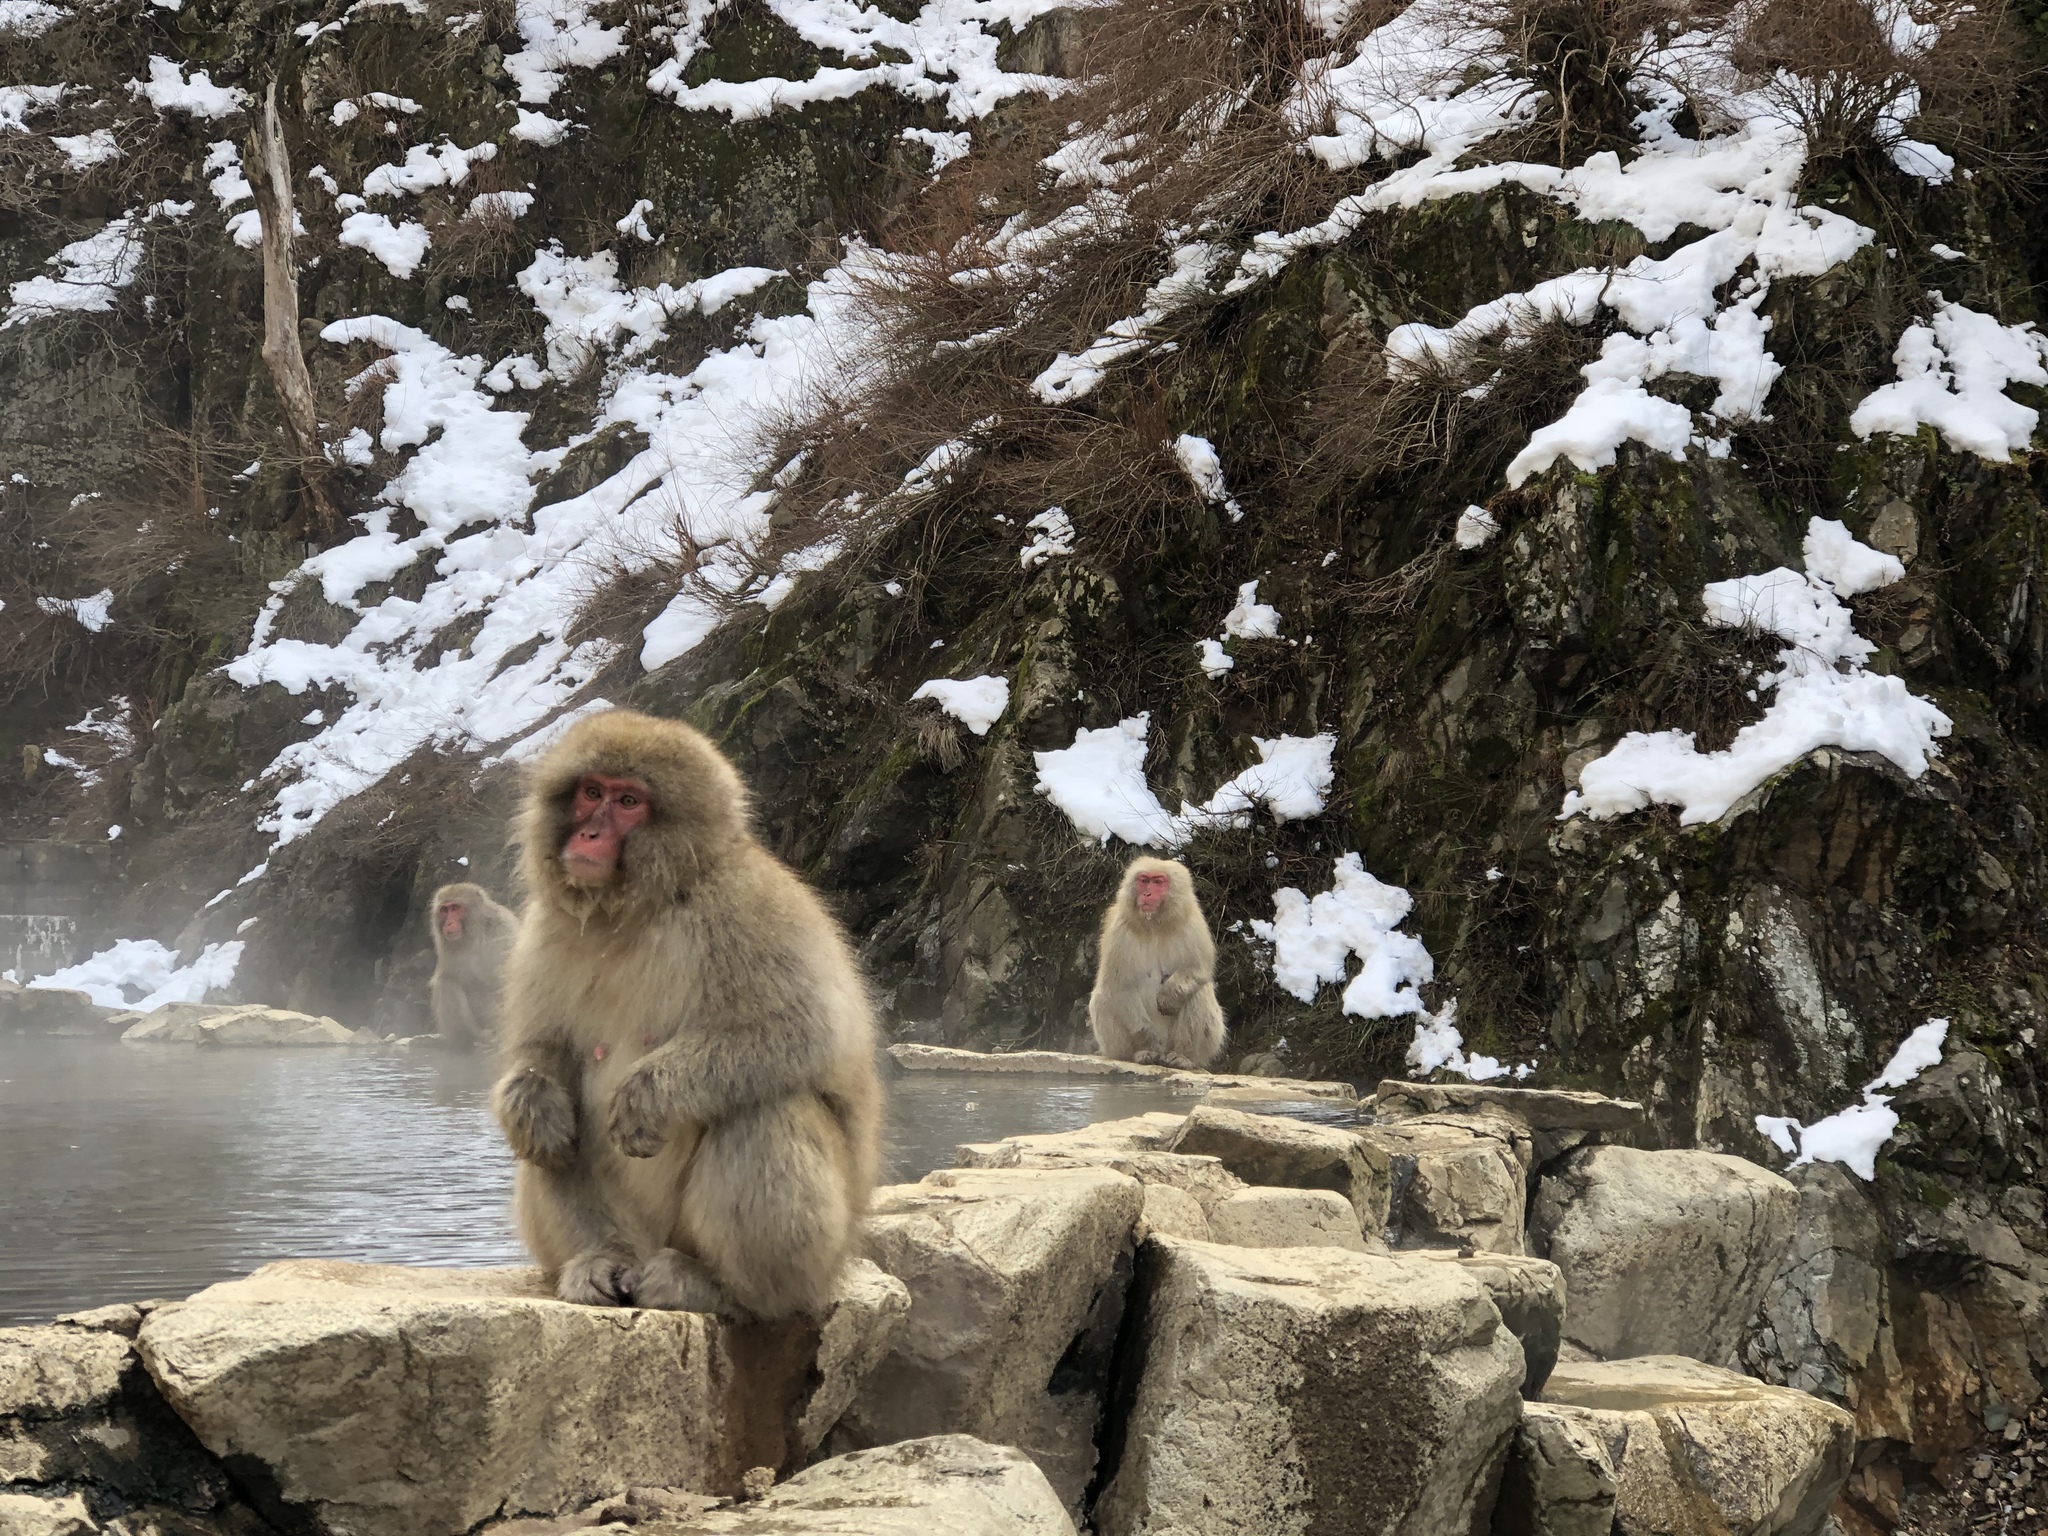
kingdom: Animalia
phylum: Chordata
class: Mammalia
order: Primates
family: Cercopithecidae
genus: Macaca
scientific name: Macaca fuscata
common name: Japanese macaque
